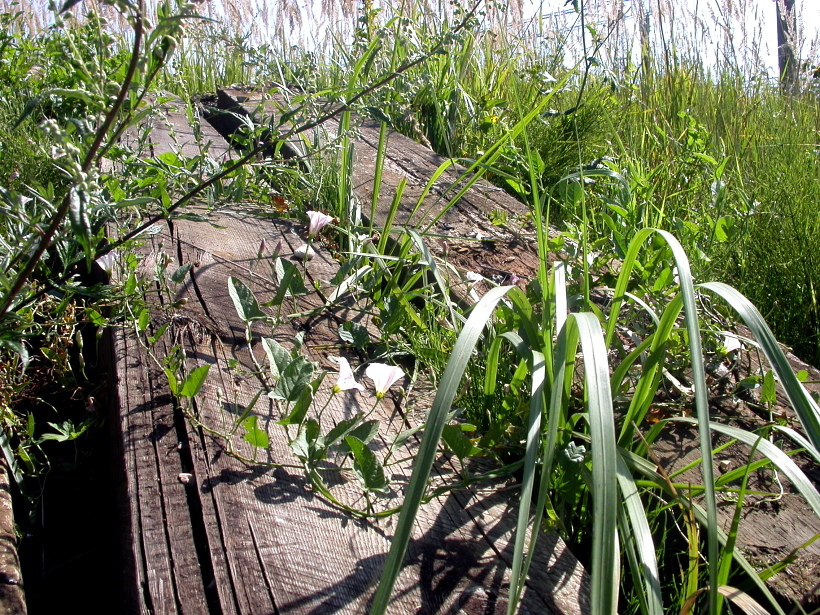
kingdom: Plantae
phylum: Tracheophyta
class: Magnoliopsida
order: Solanales
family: Convolvulaceae
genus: Convolvulus
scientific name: Convolvulus arvensis
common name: Field bindweed
